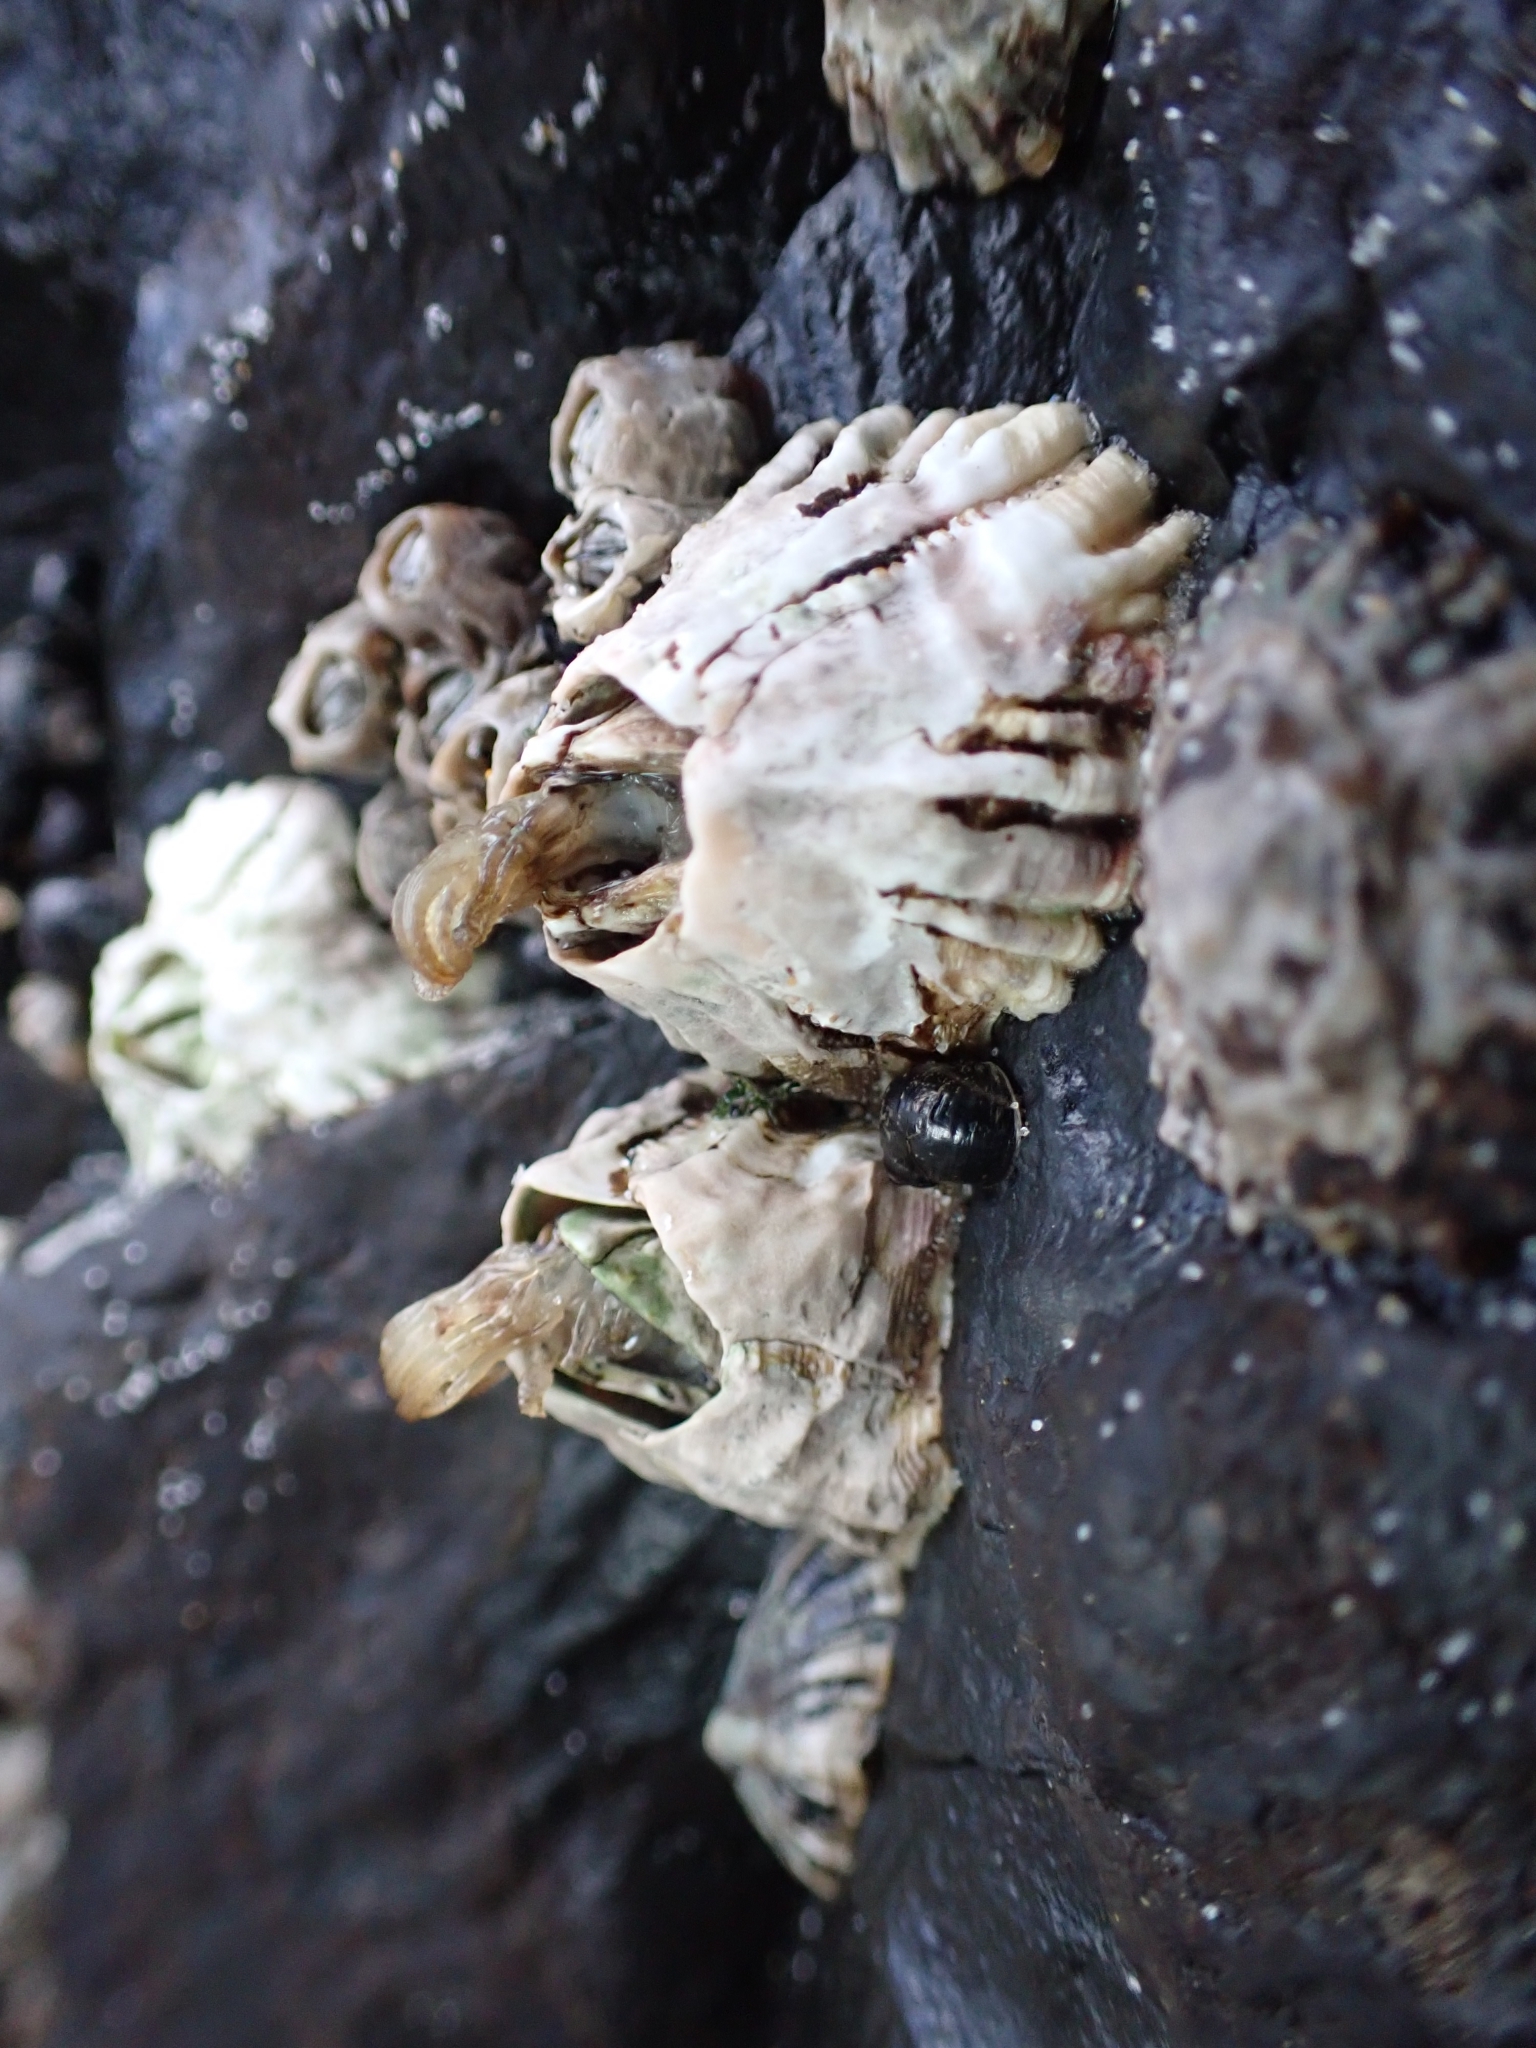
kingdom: Animalia
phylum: Arthropoda
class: Maxillopoda
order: Sessilia
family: Tetraclitidae
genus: Epopella
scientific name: Epopella plicata
